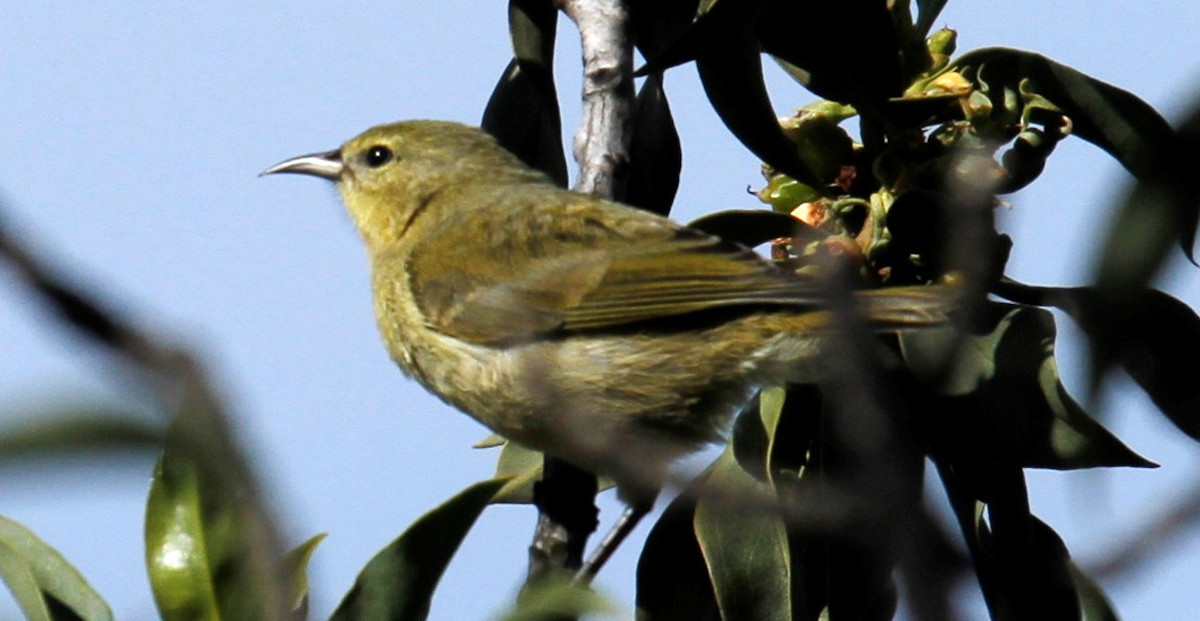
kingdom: Animalia
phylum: Chordata
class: Aves
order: Passeriformes
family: Fringillidae
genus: Chlorodrepanis
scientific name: Chlorodrepanis virens
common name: Hawaii amakihi
